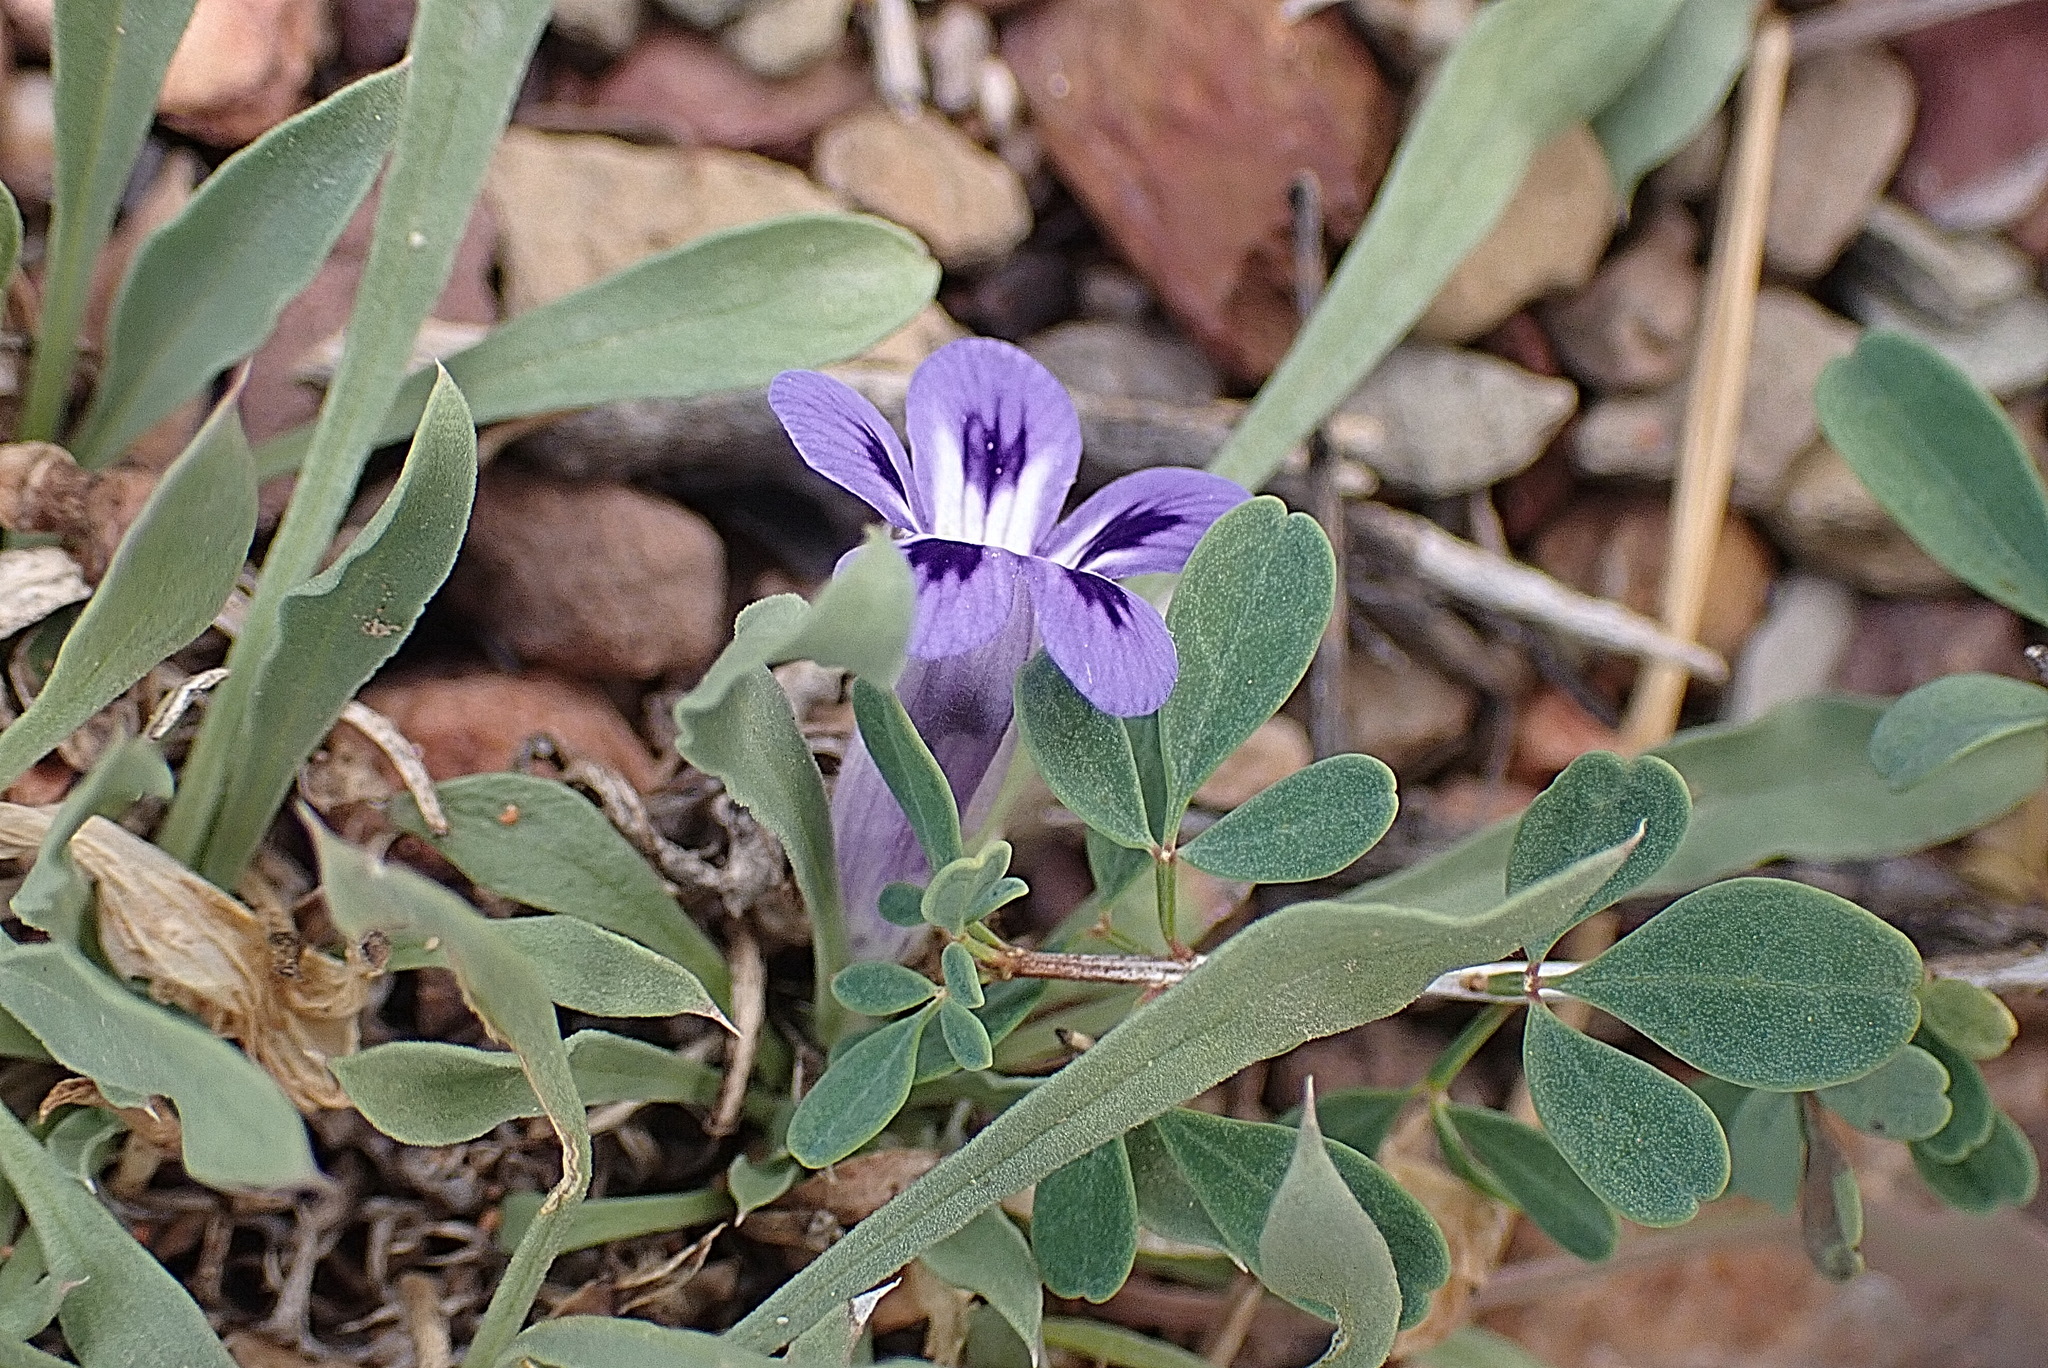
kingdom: Plantae
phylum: Tracheophyta
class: Magnoliopsida
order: Lamiales
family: Scrophulariaceae
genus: Aptosimum
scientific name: Aptosimum indivisum
